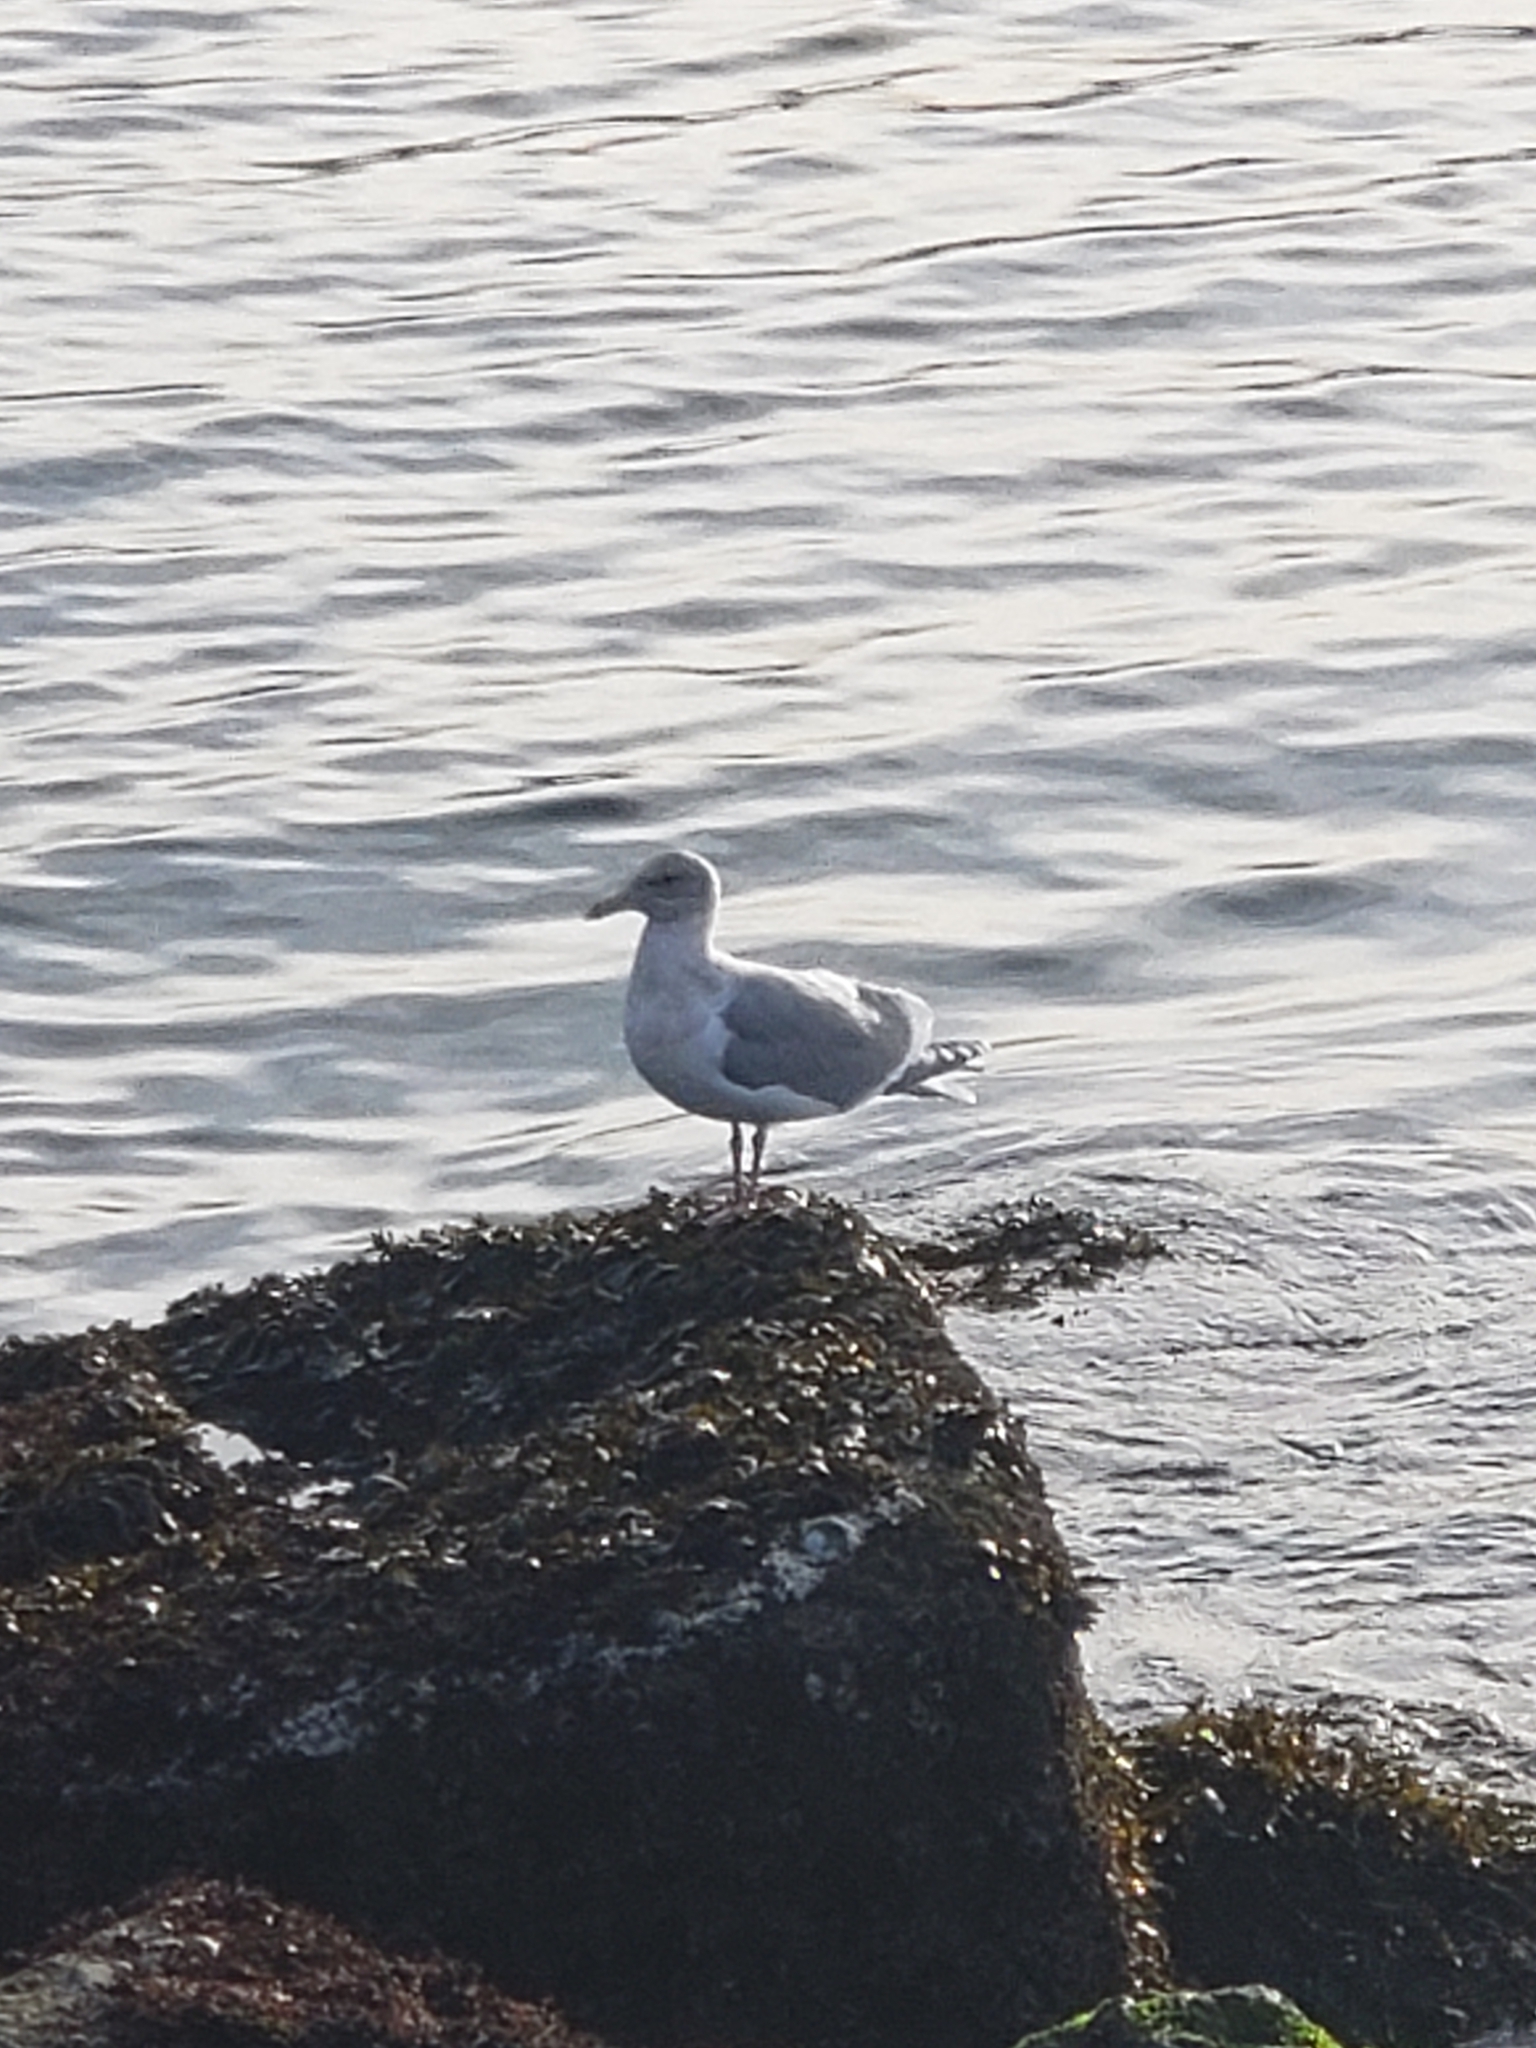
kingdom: Animalia
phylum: Chordata
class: Aves
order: Charadriiformes
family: Laridae
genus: Larus
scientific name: Larus
